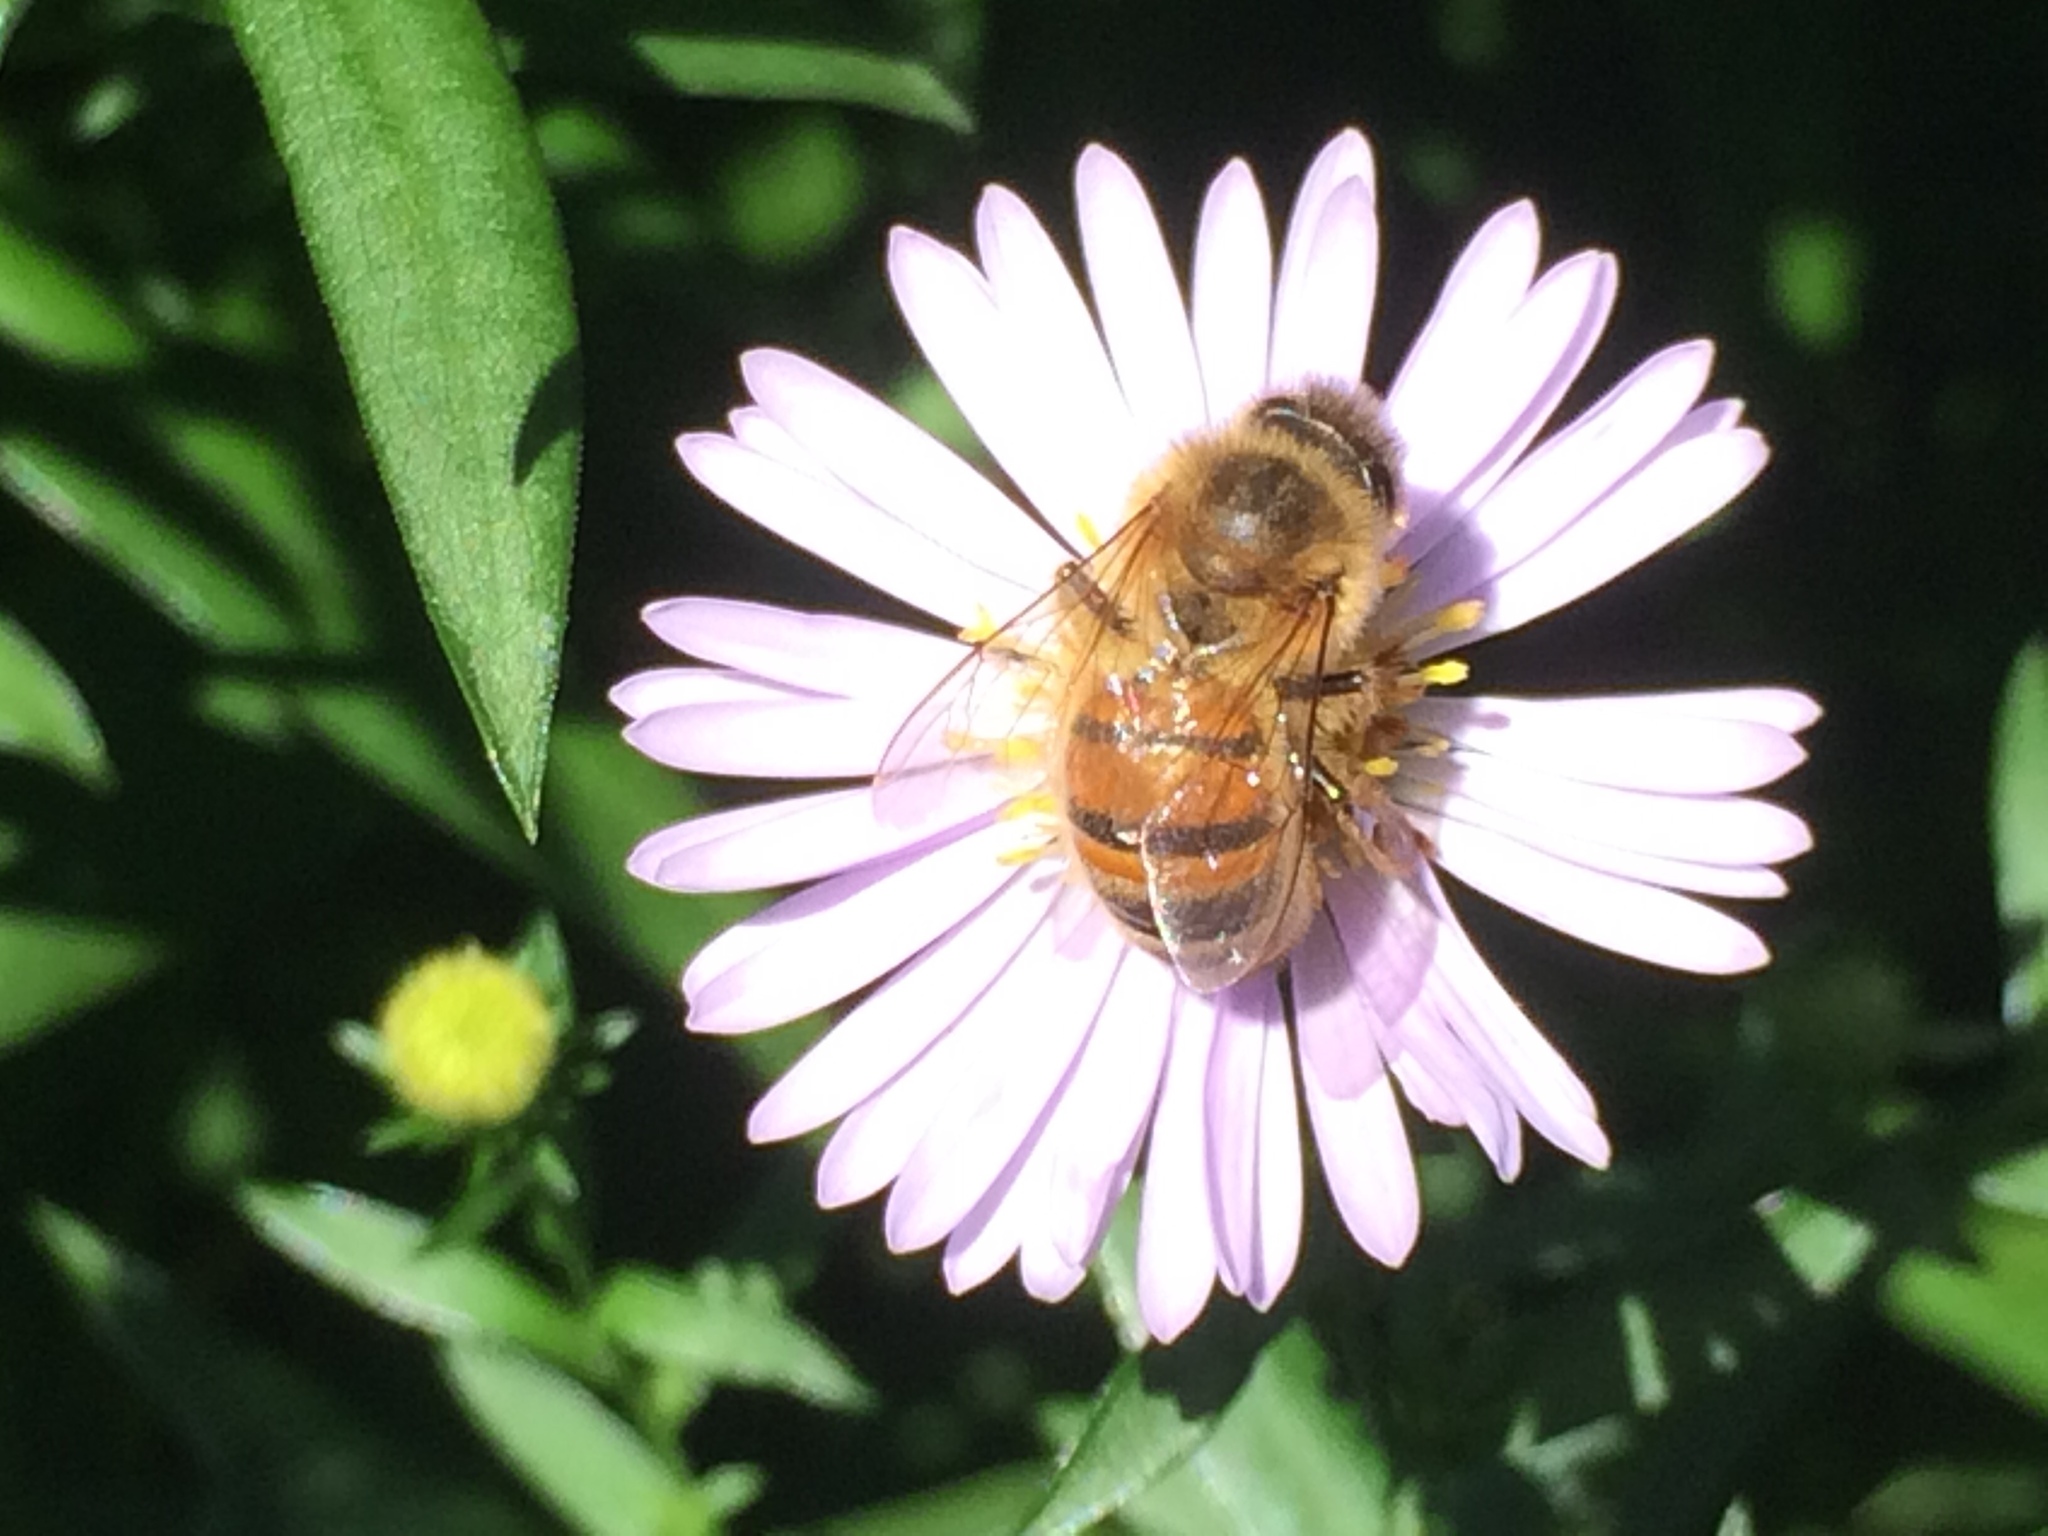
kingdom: Animalia
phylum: Arthropoda
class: Insecta
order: Hymenoptera
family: Apidae
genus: Apis
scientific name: Apis mellifera
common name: Honey bee
